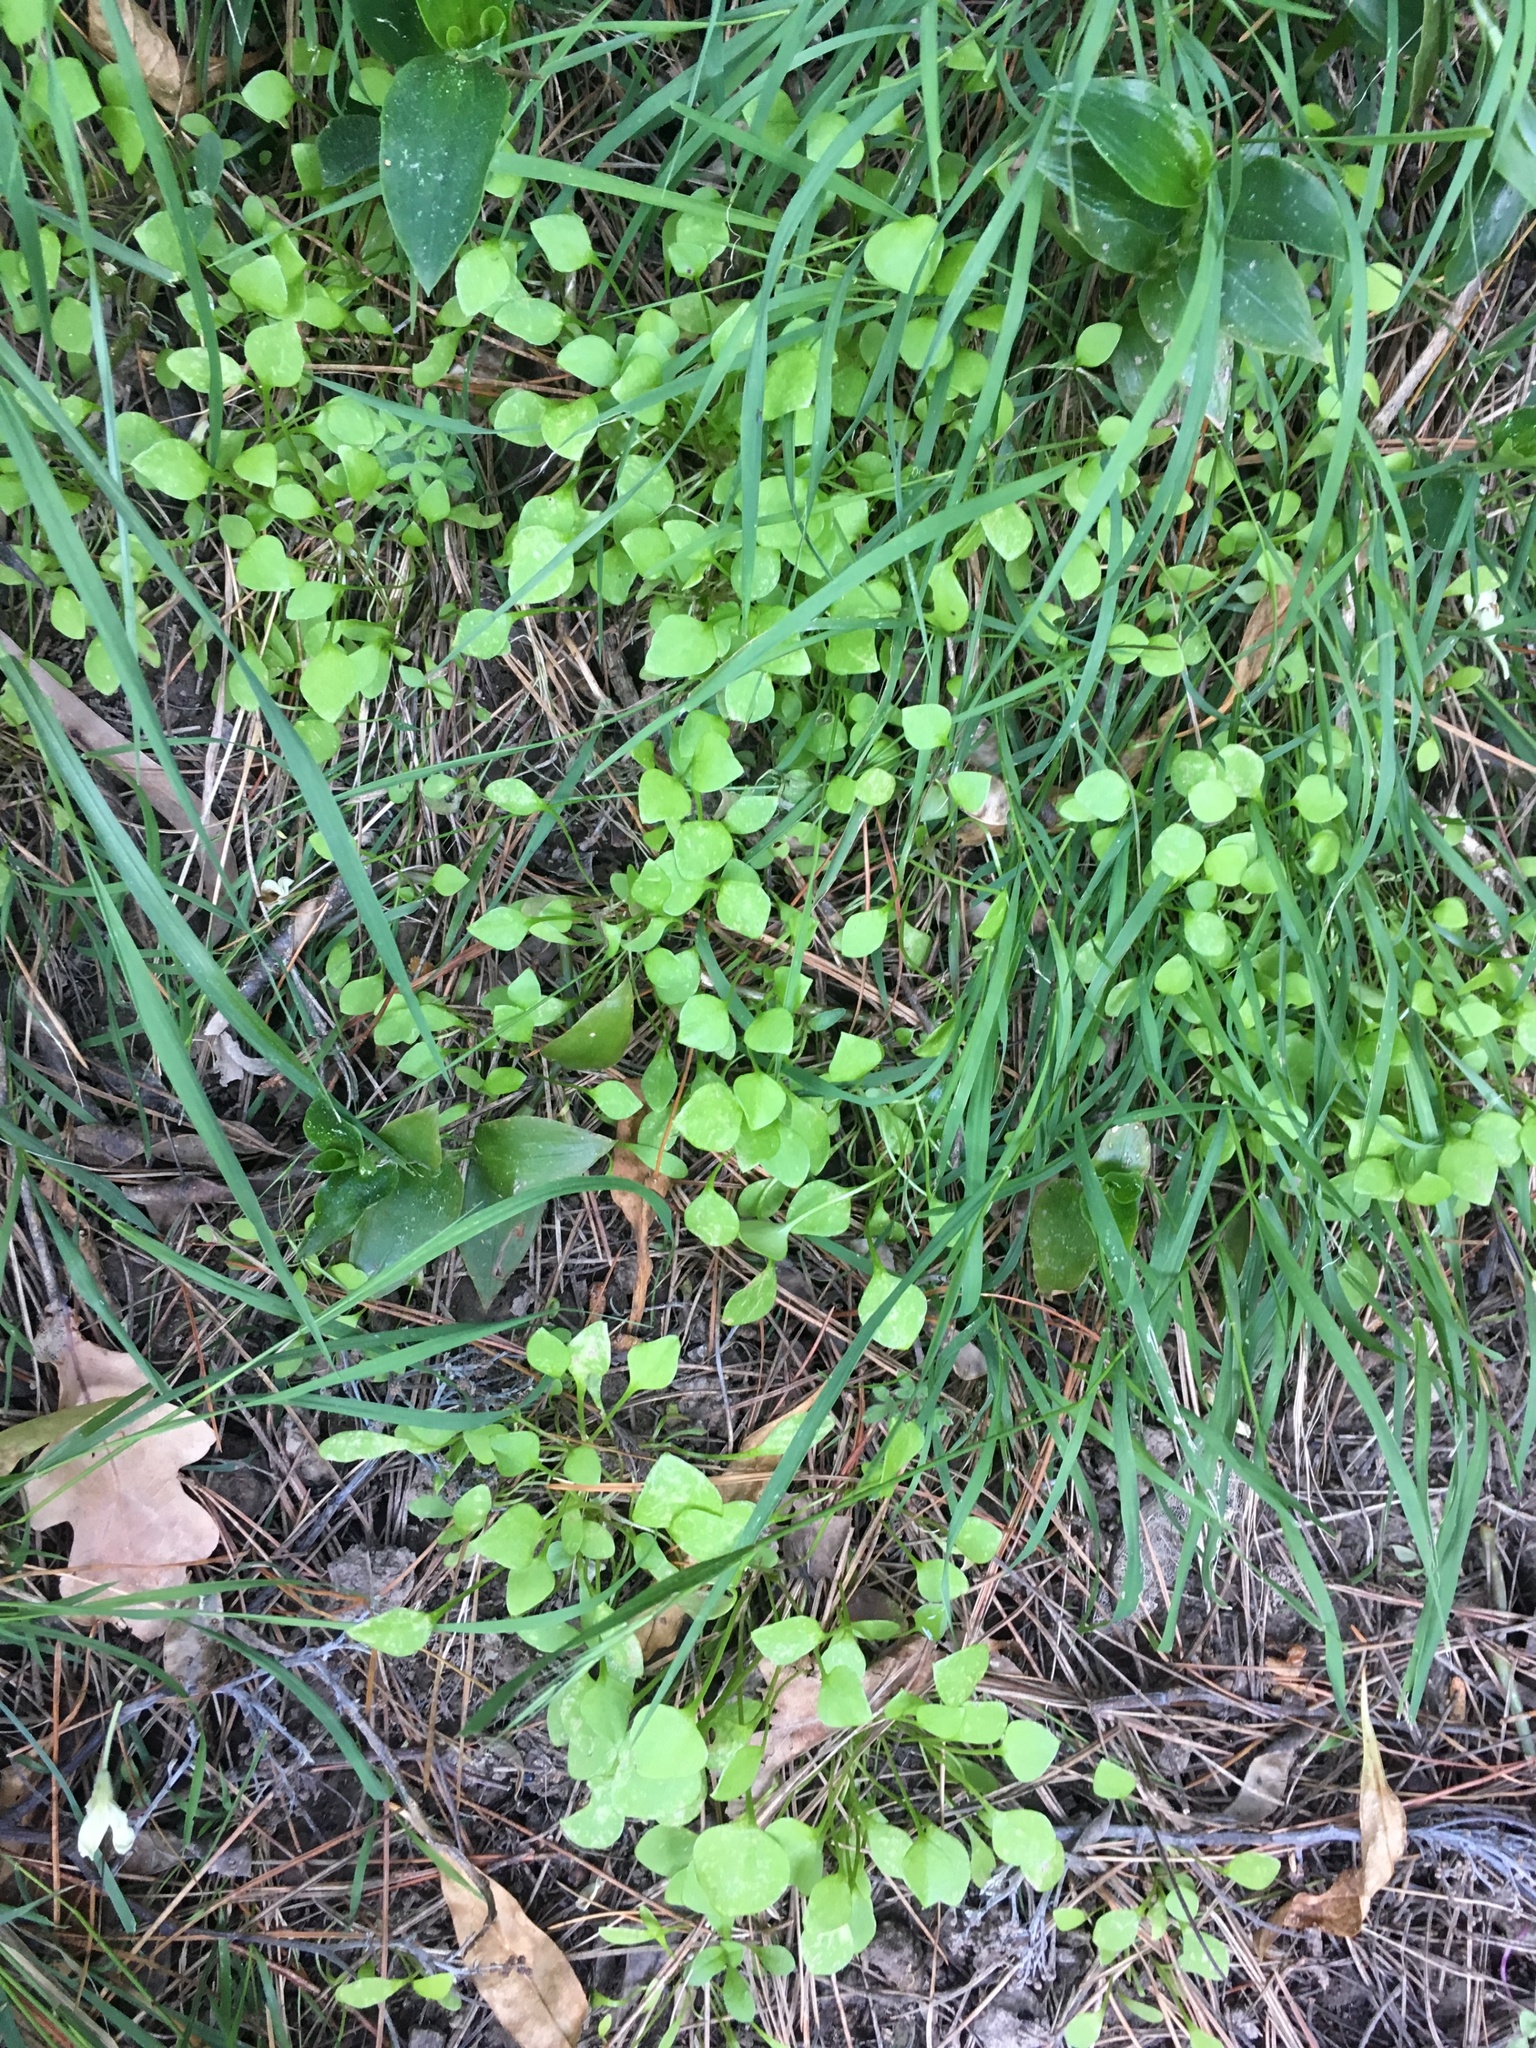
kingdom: Plantae
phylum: Tracheophyta
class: Magnoliopsida
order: Caryophyllales
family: Montiaceae
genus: Claytonia
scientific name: Claytonia perfoliata
